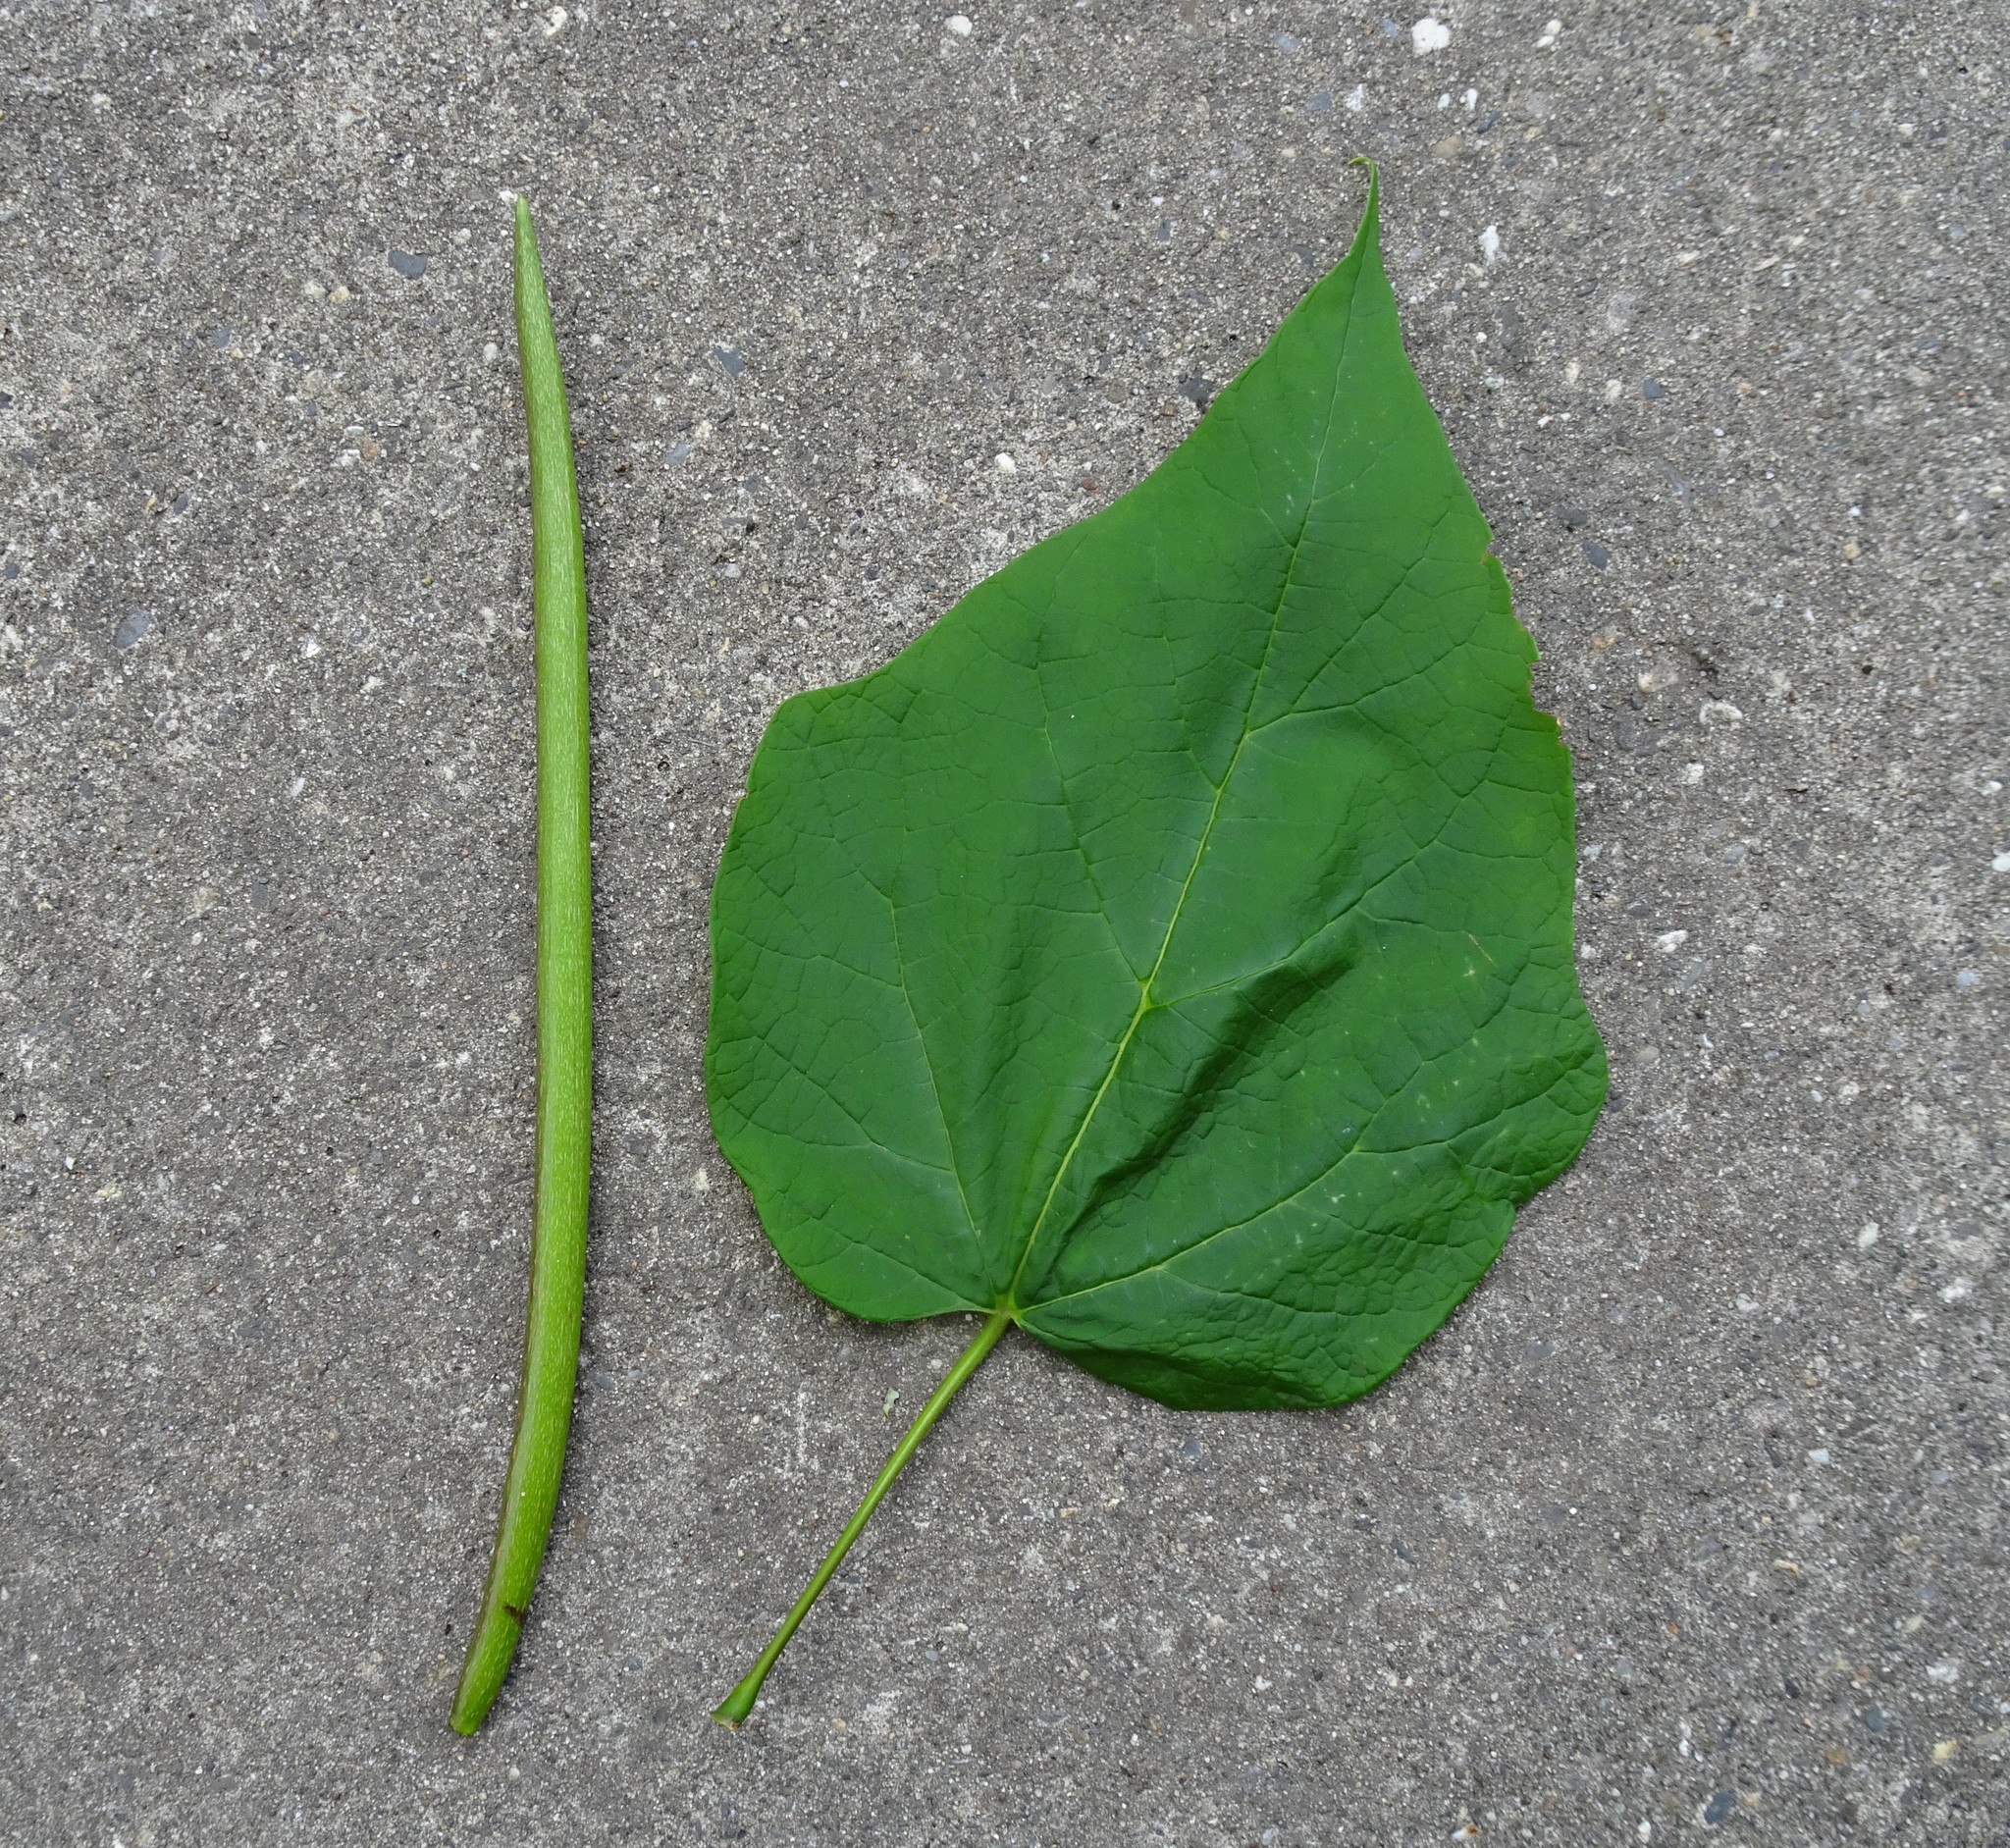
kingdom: Plantae
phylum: Tracheophyta
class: Magnoliopsida
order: Lamiales
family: Bignoniaceae
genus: Catalpa
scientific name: Catalpa speciosa
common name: Northern catalpa
